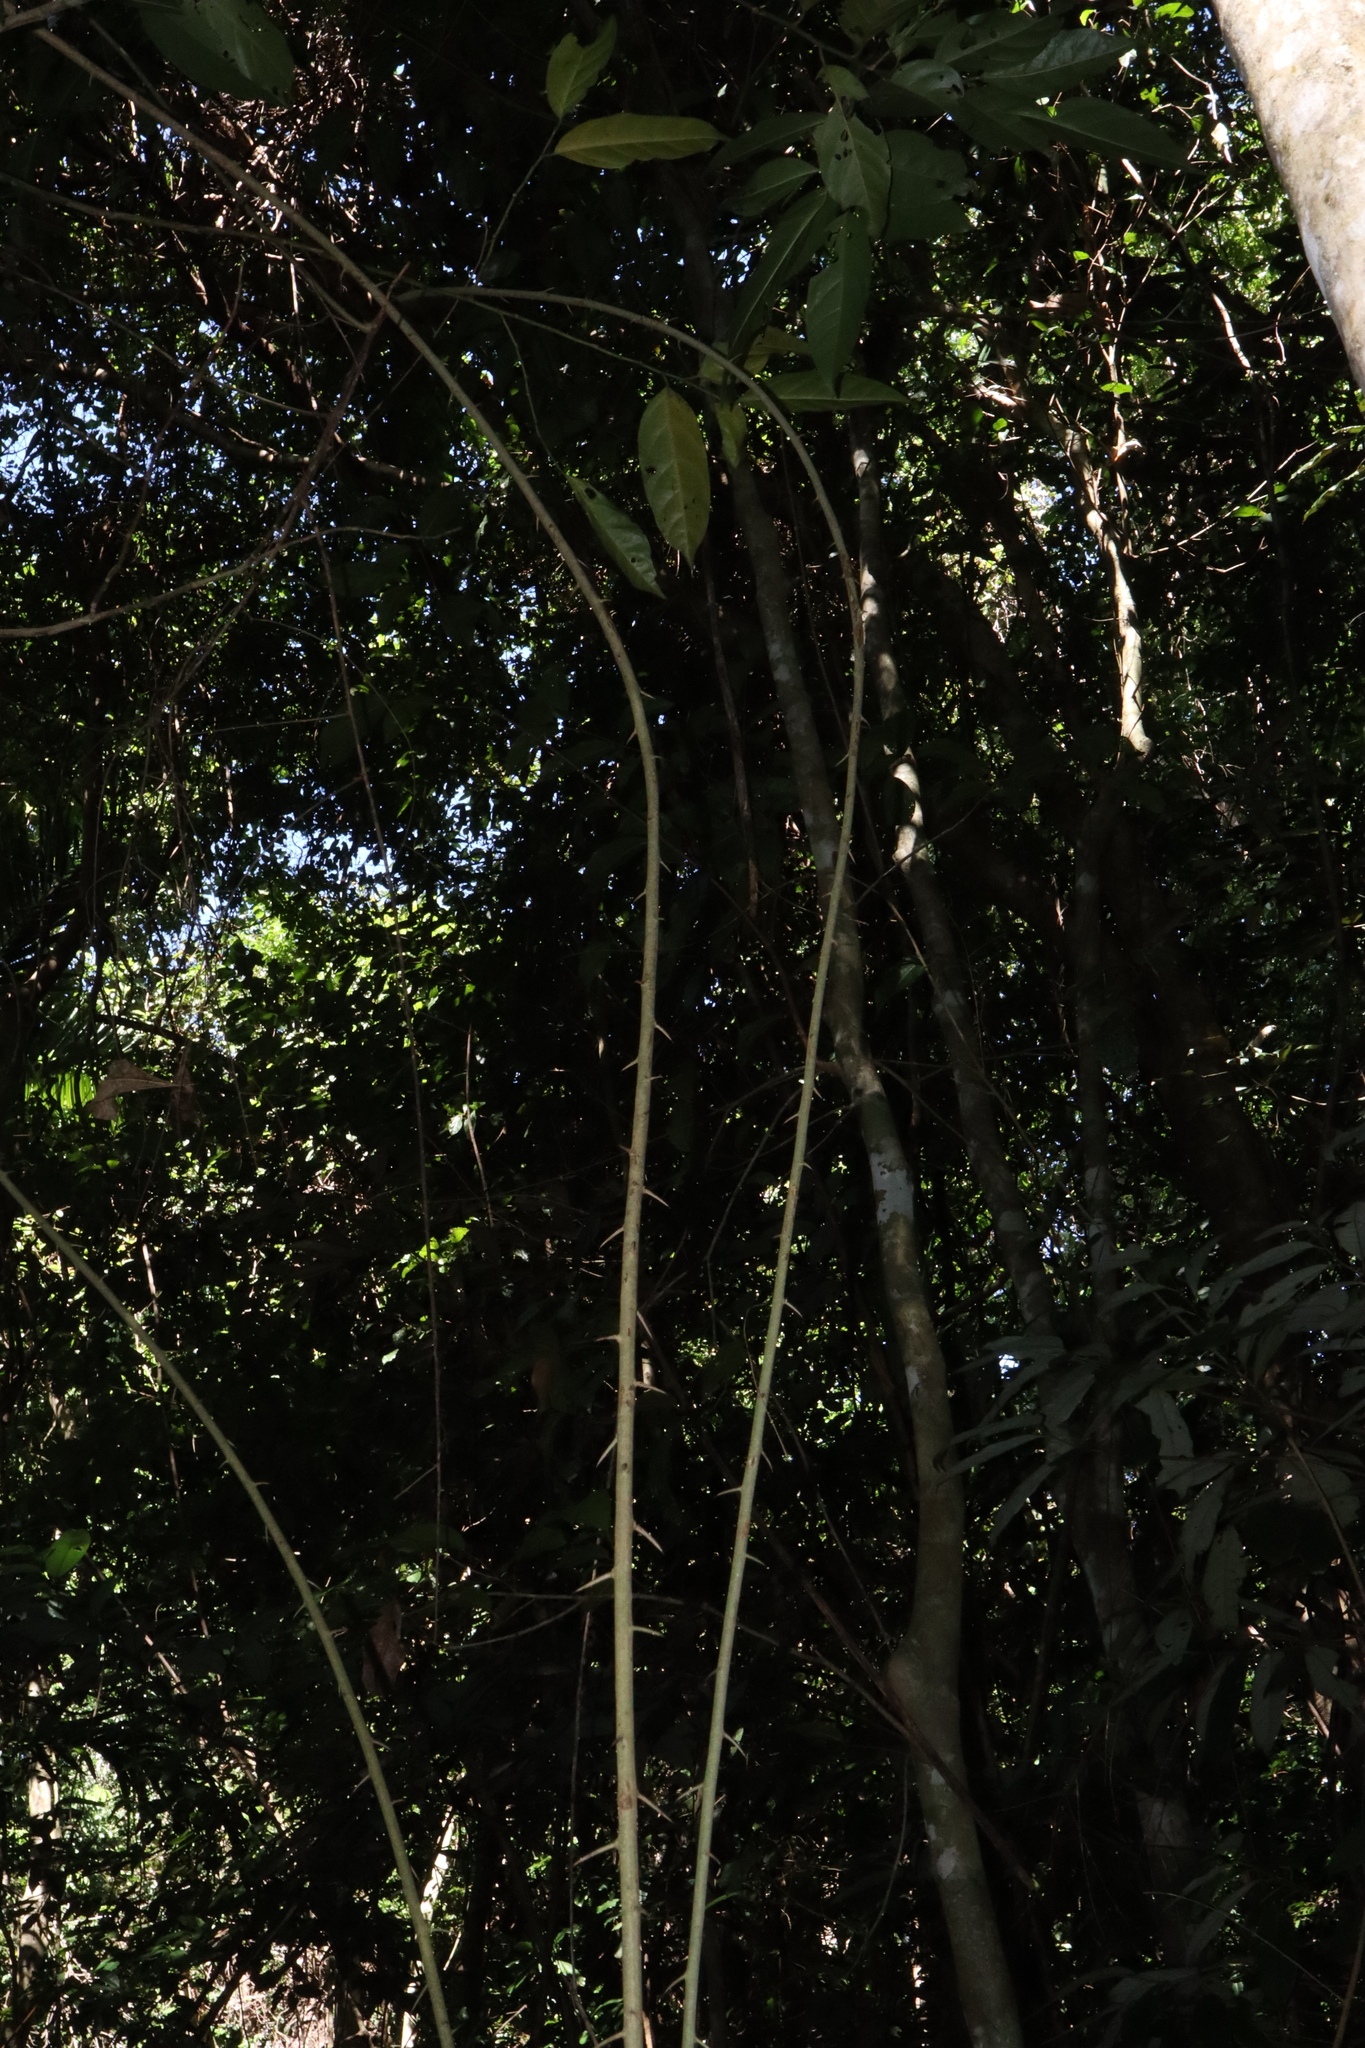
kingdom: Plantae
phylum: Tracheophyta
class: Magnoliopsida
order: Rosales
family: Moraceae
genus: Maclura
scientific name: Maclura cochinchinensis
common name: Cockspurthorn
